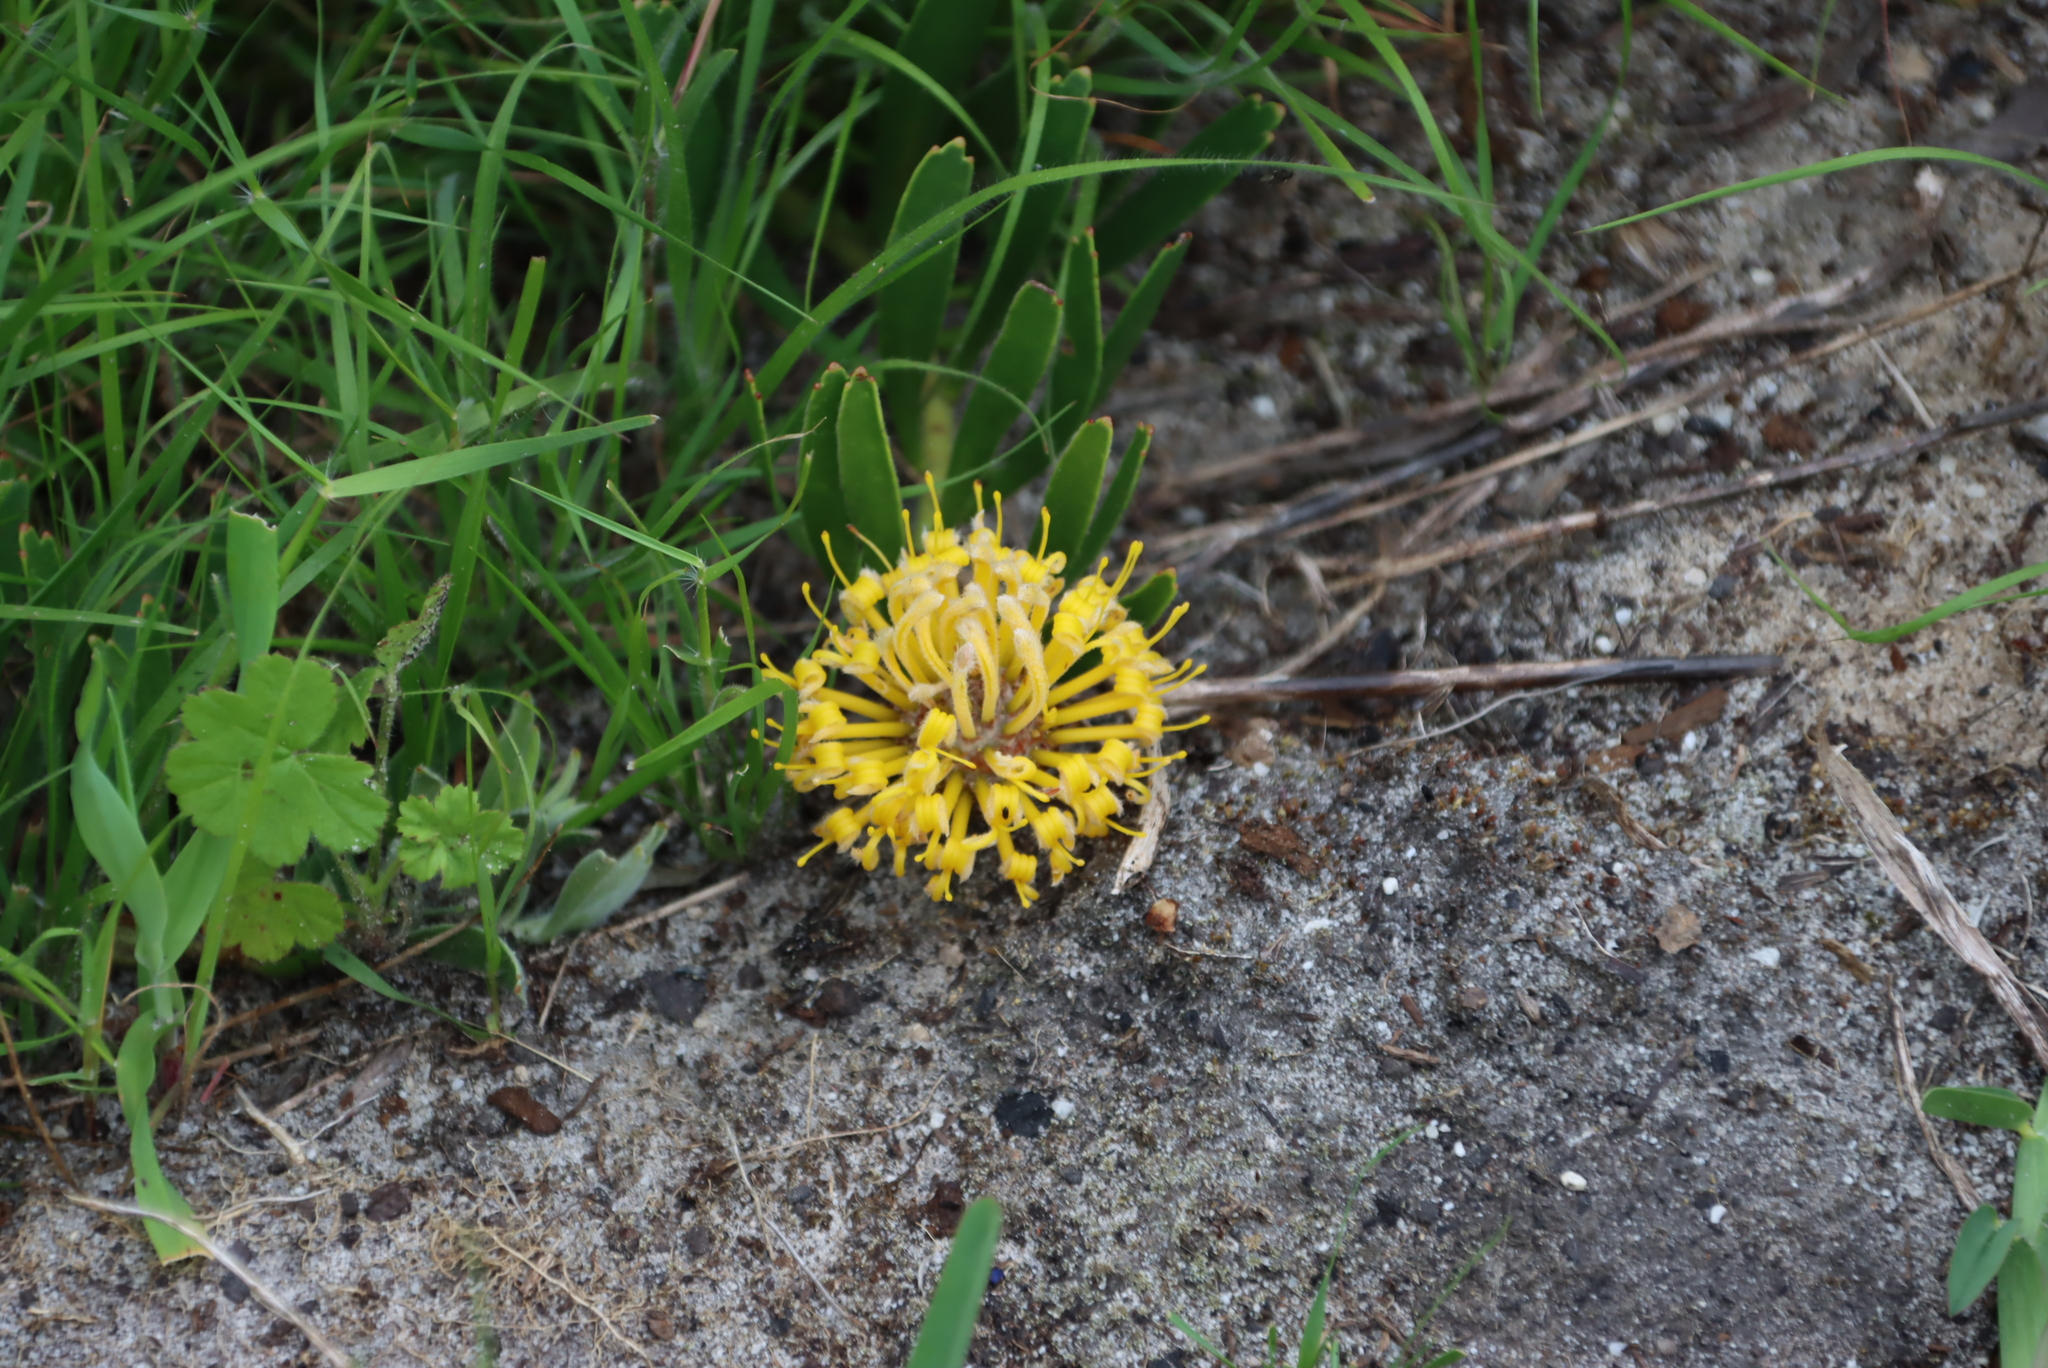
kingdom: Plantae
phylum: Tracheophyta
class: Magnoliopsida
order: Proteales
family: Proteaceae
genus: Leucospermum
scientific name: Leucospermum hypophyllocarpodendron
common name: Snakestem pincushion
